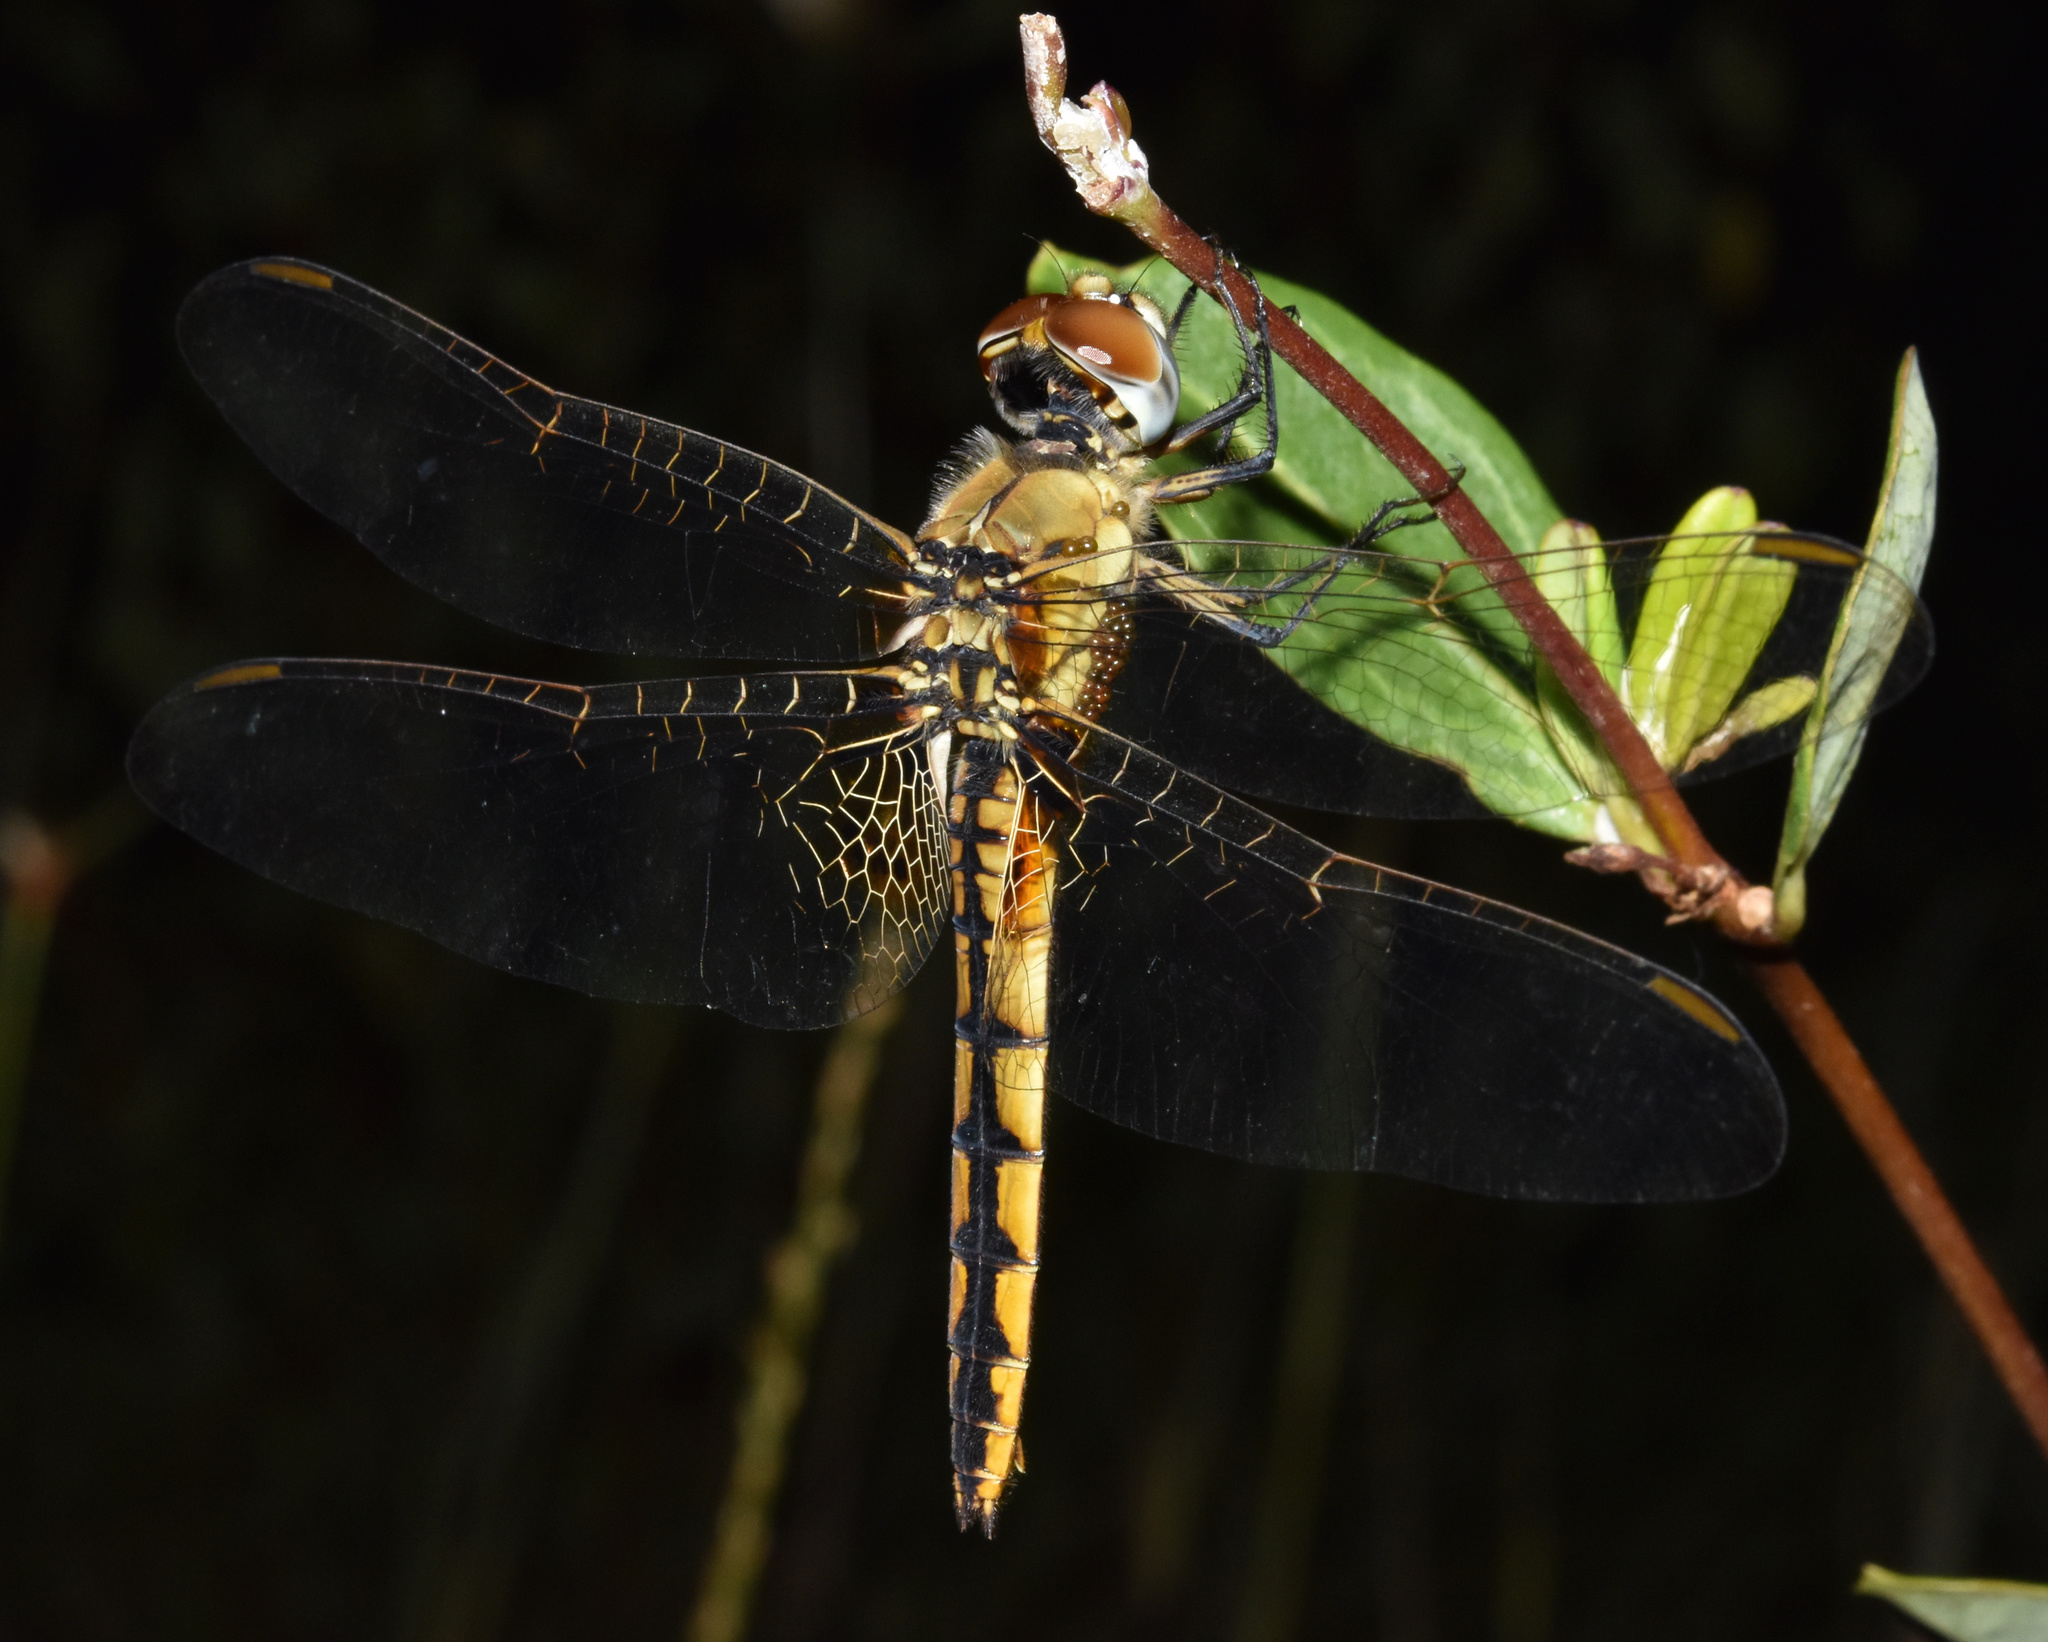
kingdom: Animalia
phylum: Arthropoda
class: Insecta
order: Odonata
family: Libellulidae
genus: Urothemis
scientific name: Urothemis edwardsii
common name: Blue basker
